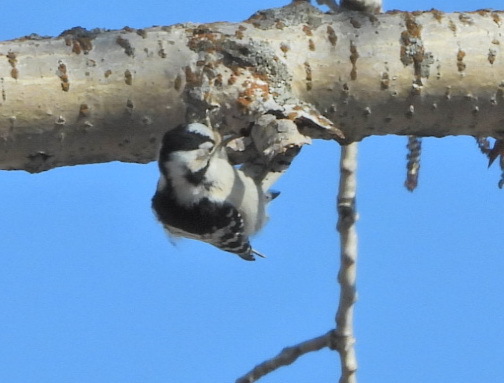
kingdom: Animalia
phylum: Chordata
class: Aves
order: Piciformes
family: Picidae
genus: Dryobates
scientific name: Dryobates minor
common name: Lesser spotted woodpecker
